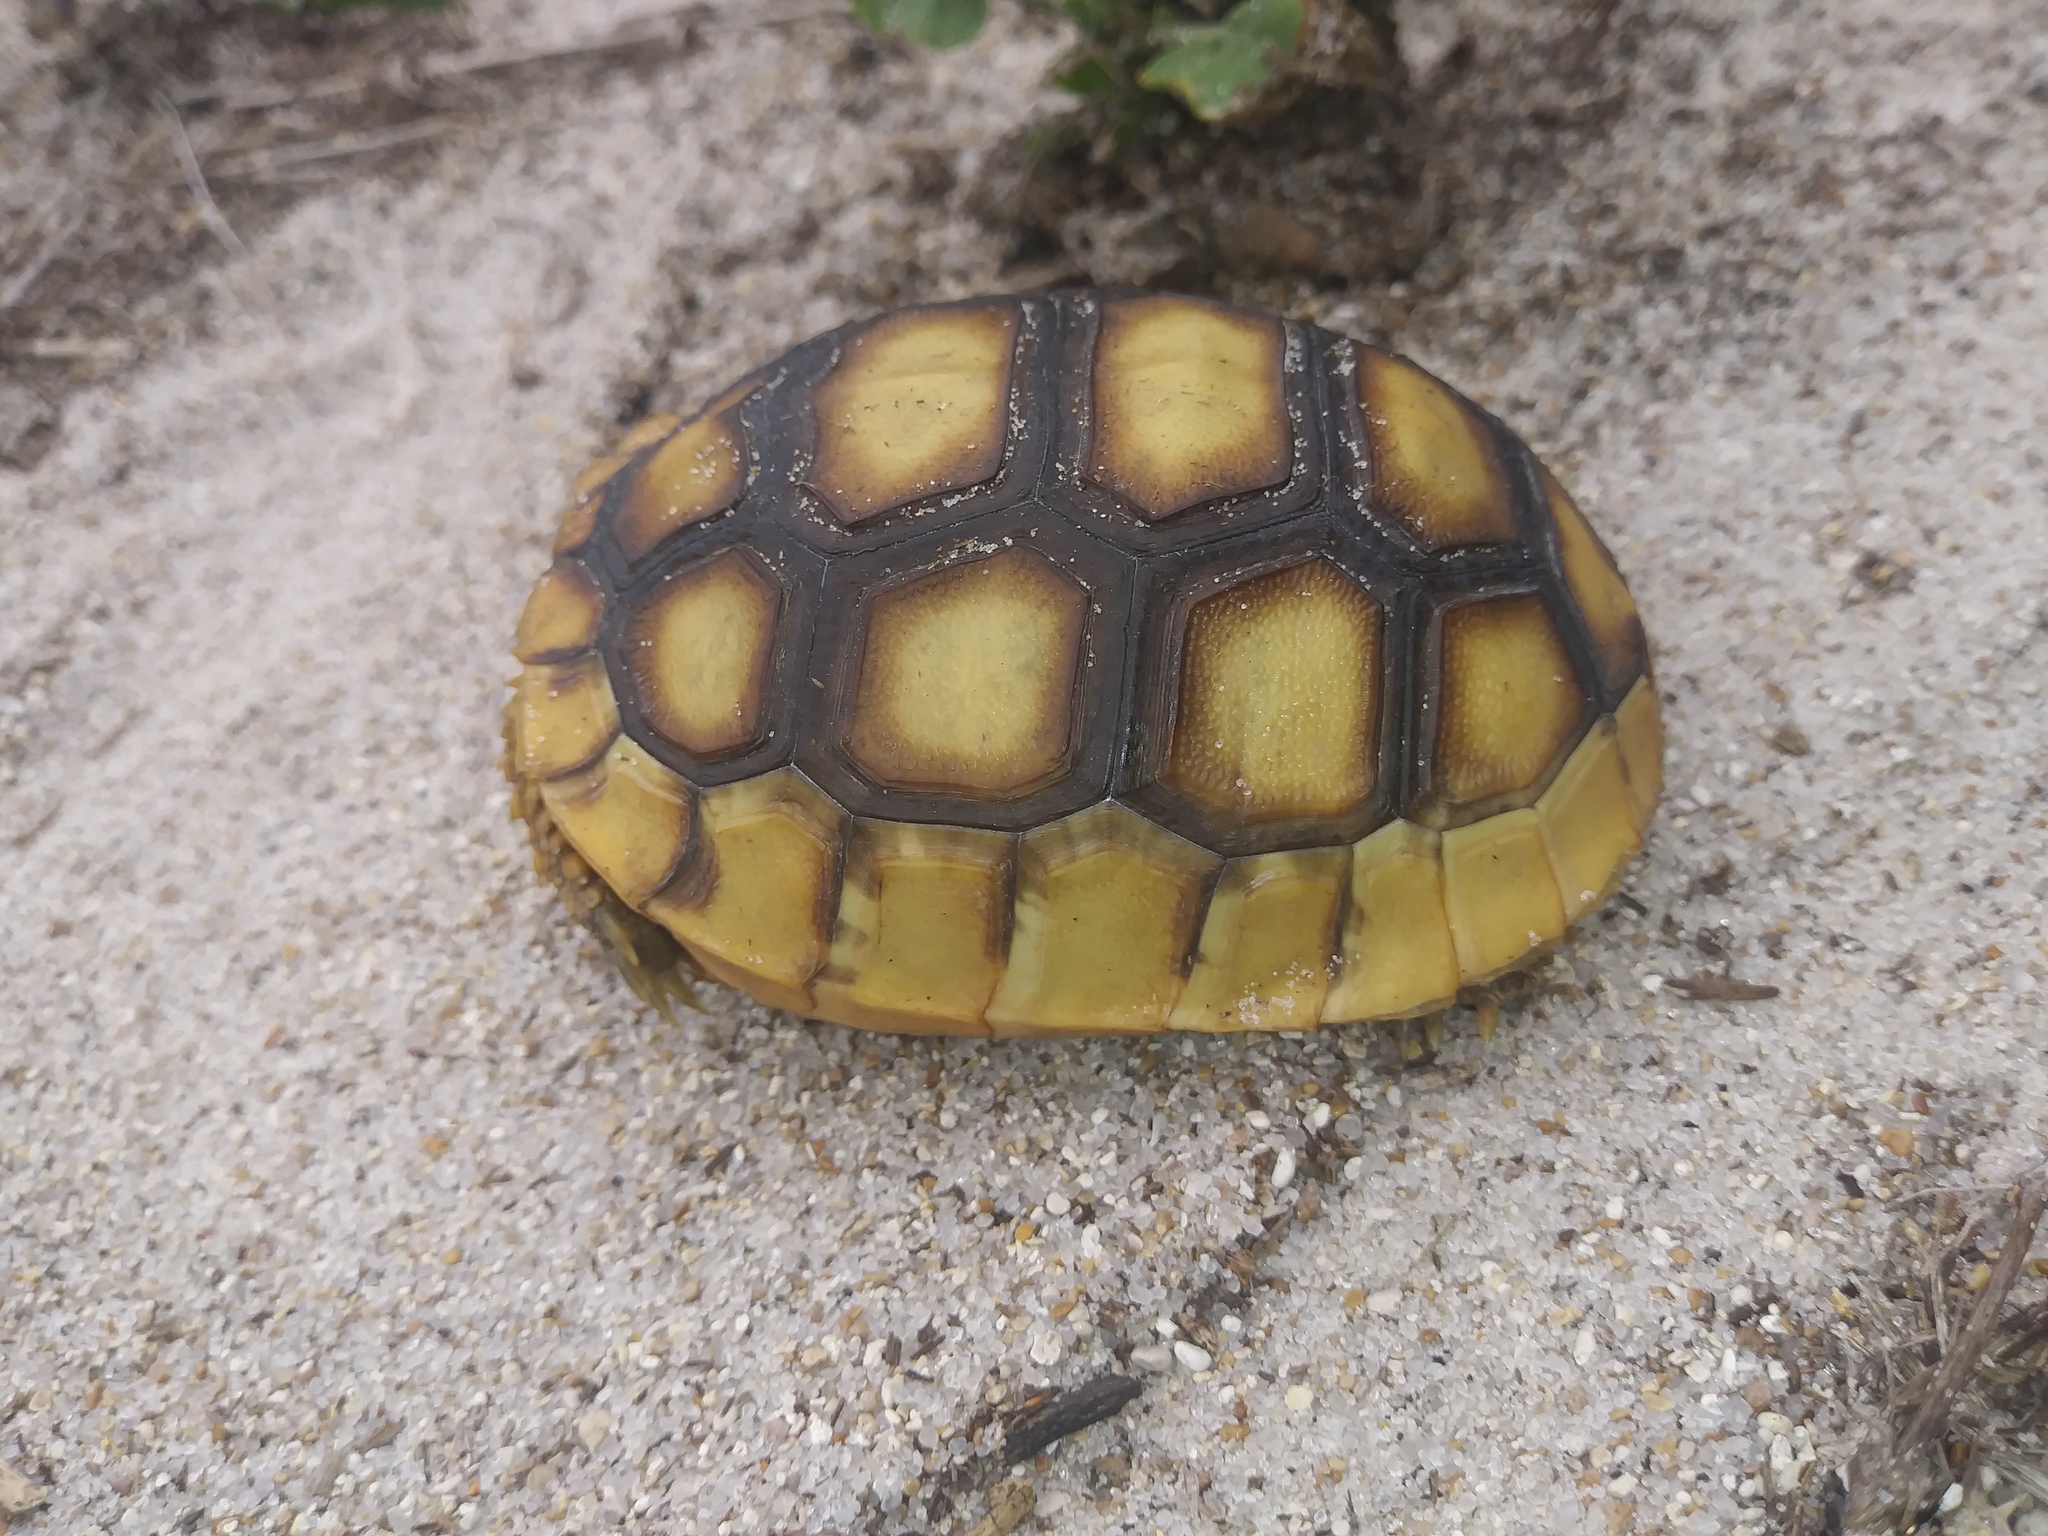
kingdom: Animalia
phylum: Chordata
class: Testudines
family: Testudinidae
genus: Gopherus
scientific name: Gopherus polyphemus
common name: Florida gopher tortoise
